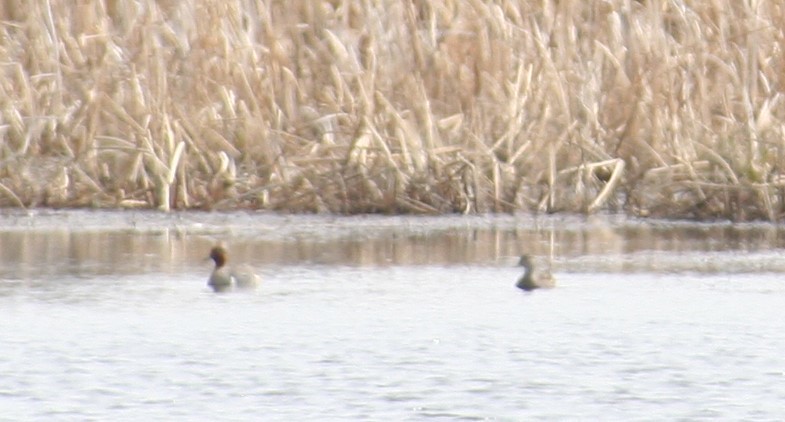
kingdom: Animalia
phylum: Chordata
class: Aves
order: Anseriformes
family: Anatidae
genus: Anas
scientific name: Anas crecca
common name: Eurasian teal
